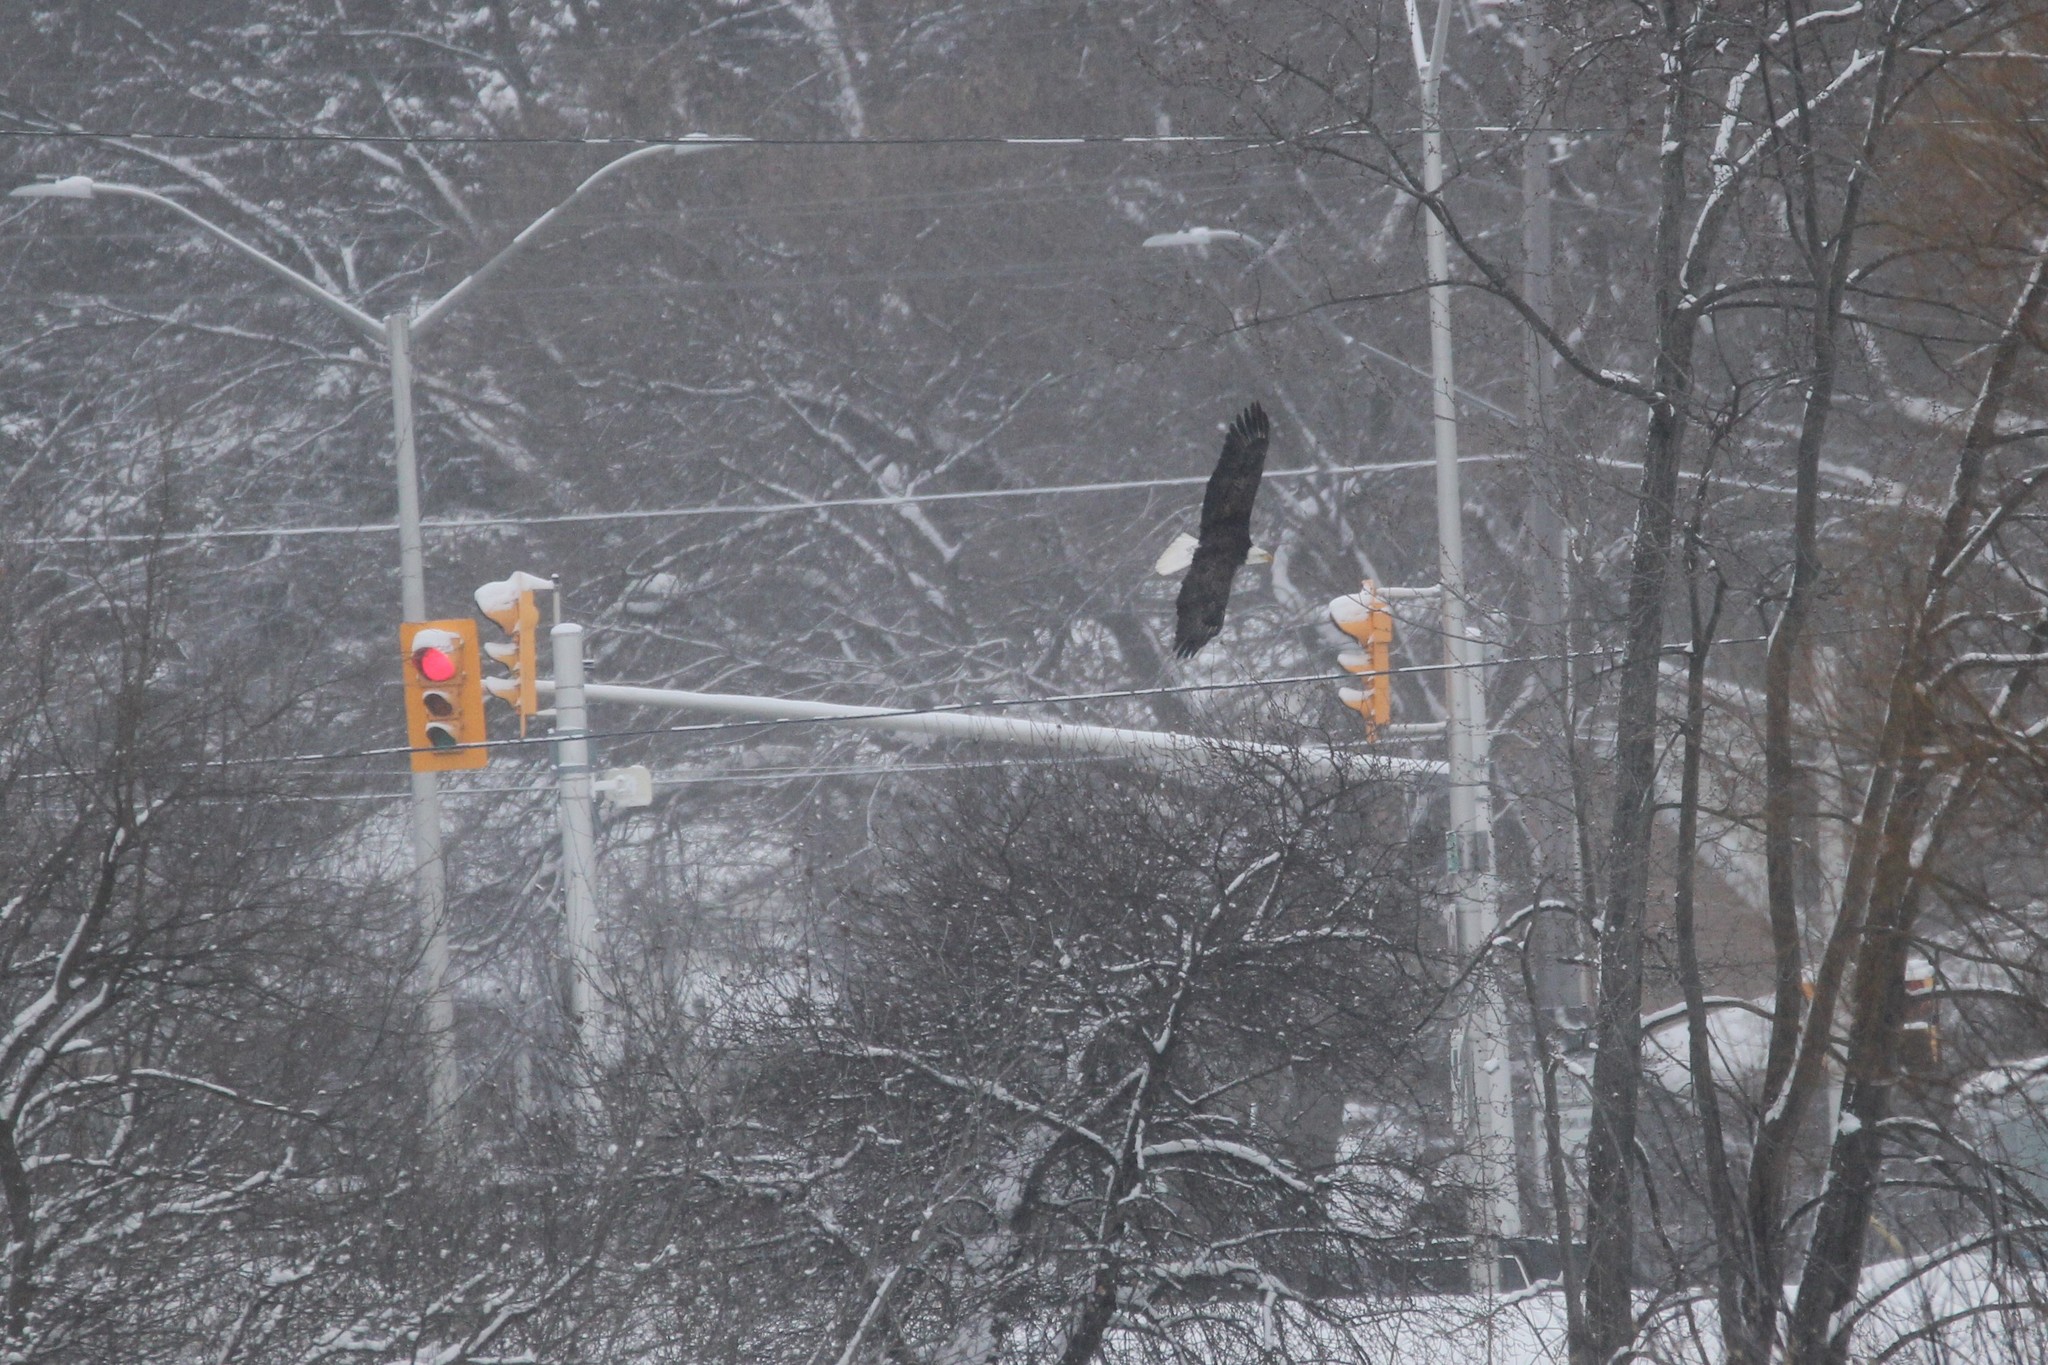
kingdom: Animalia
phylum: Chordata
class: Aves
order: Accipitriformes
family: Accipitridae
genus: Haliaeetus
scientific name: Haliaeetus leucocephalus
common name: Bald eagle
